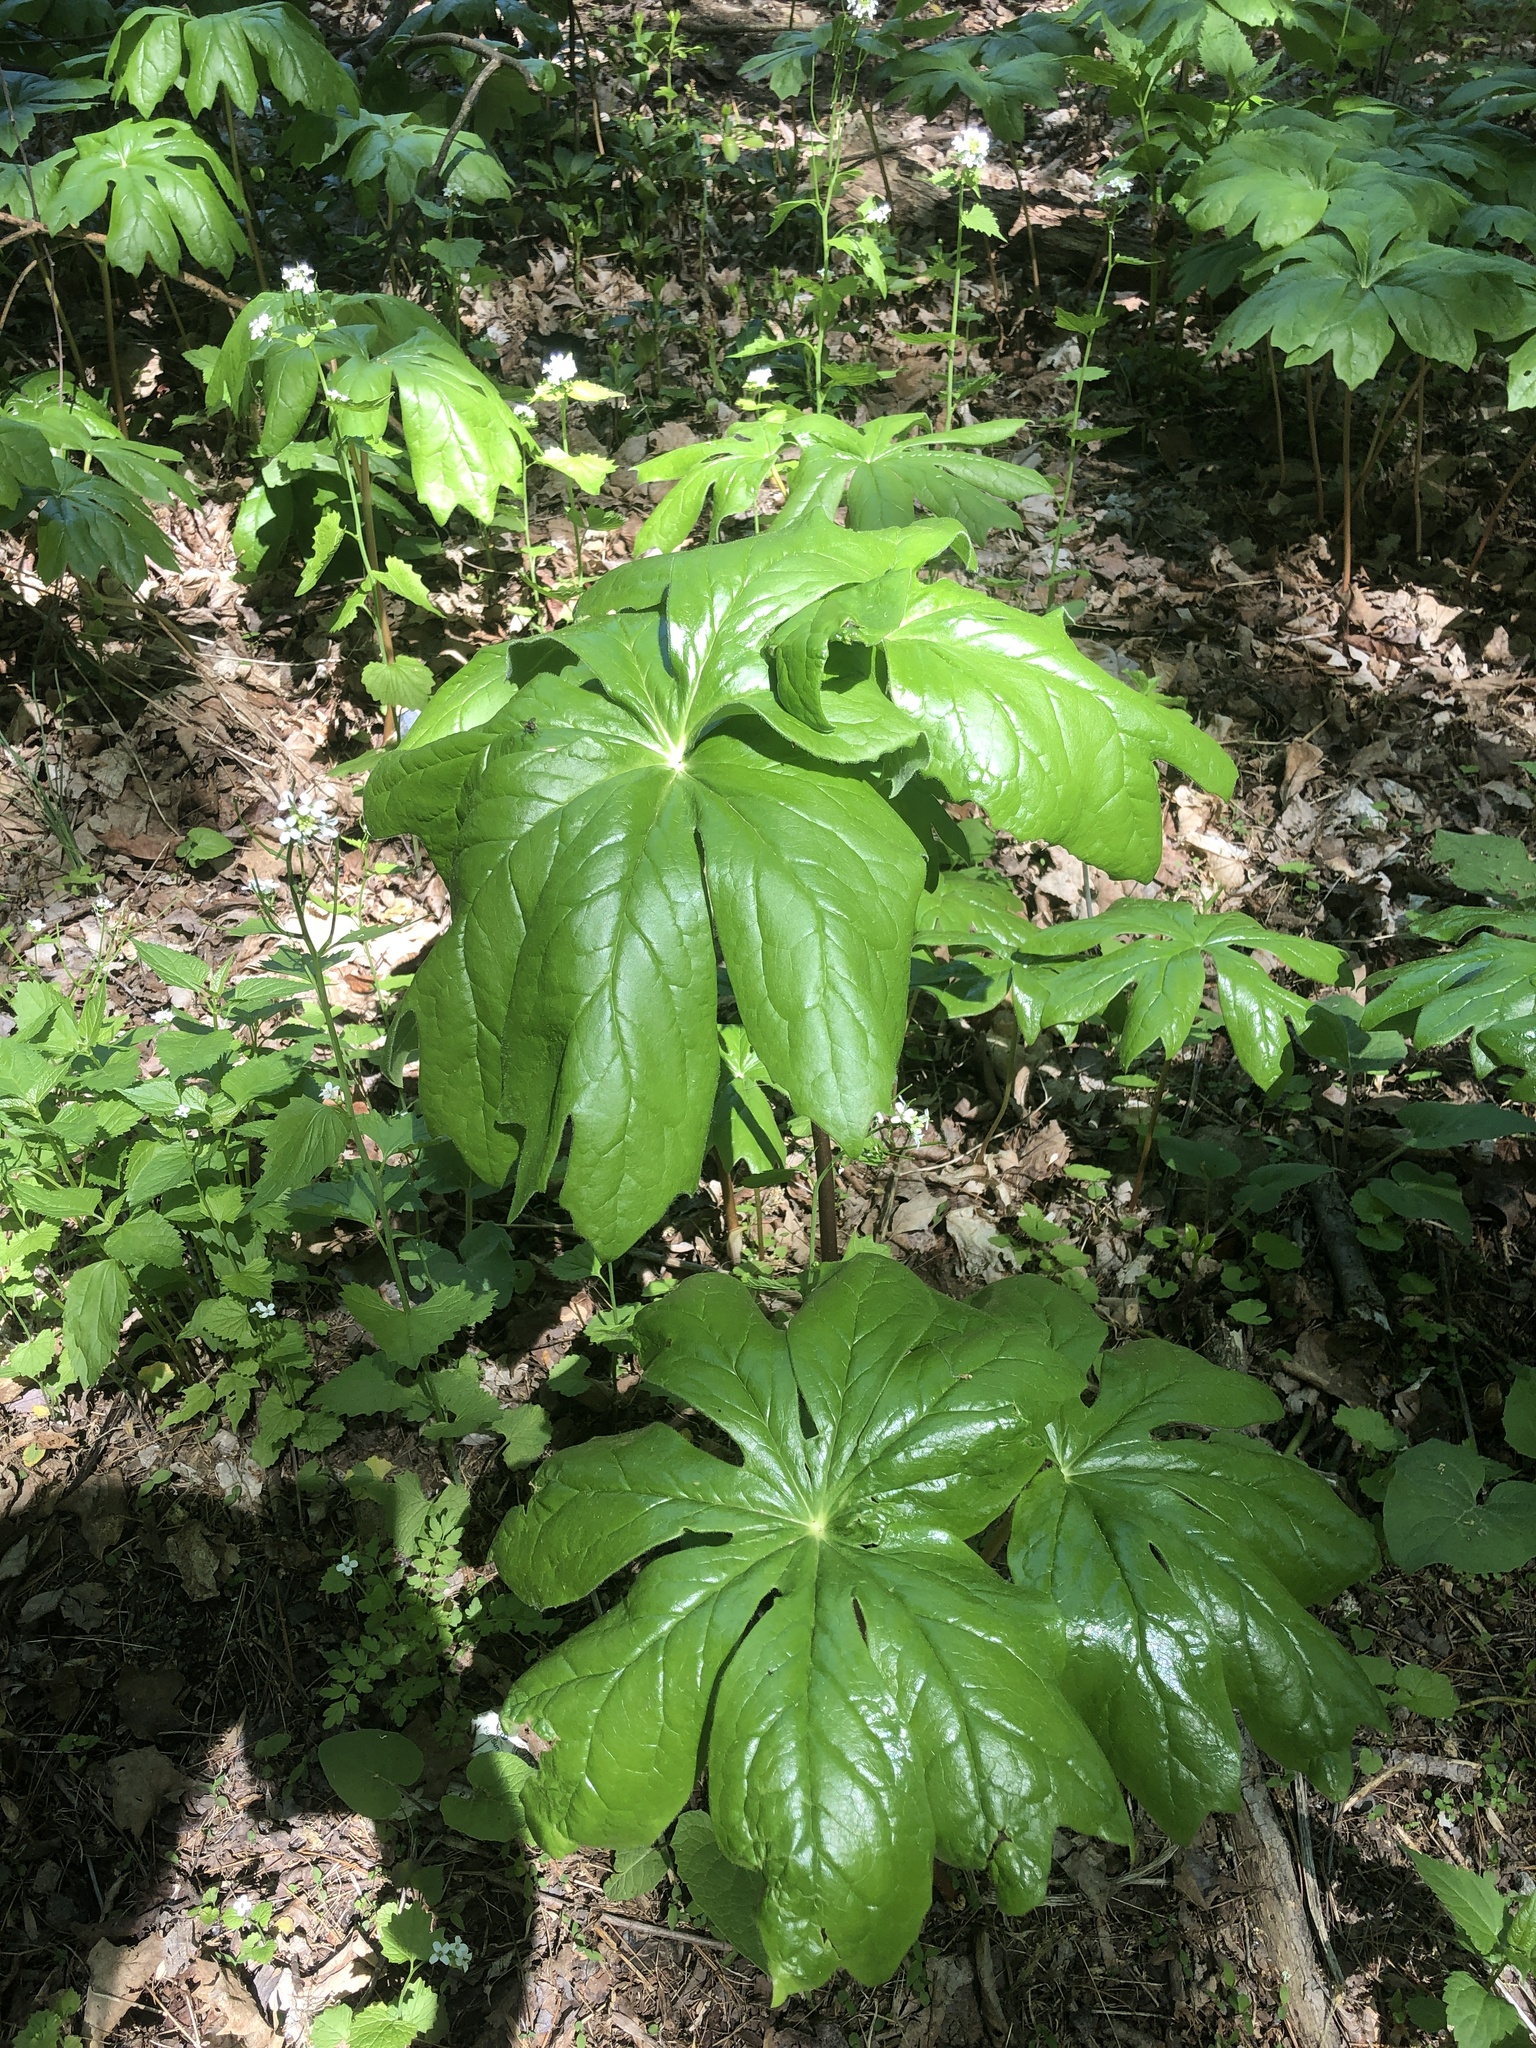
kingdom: Plantae
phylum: Tracheophyta
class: Magnoliopsida
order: Ranunculales
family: Berberidaceae
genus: Podophyllum
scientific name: Podophyllum peltatum
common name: Wild mandrake
